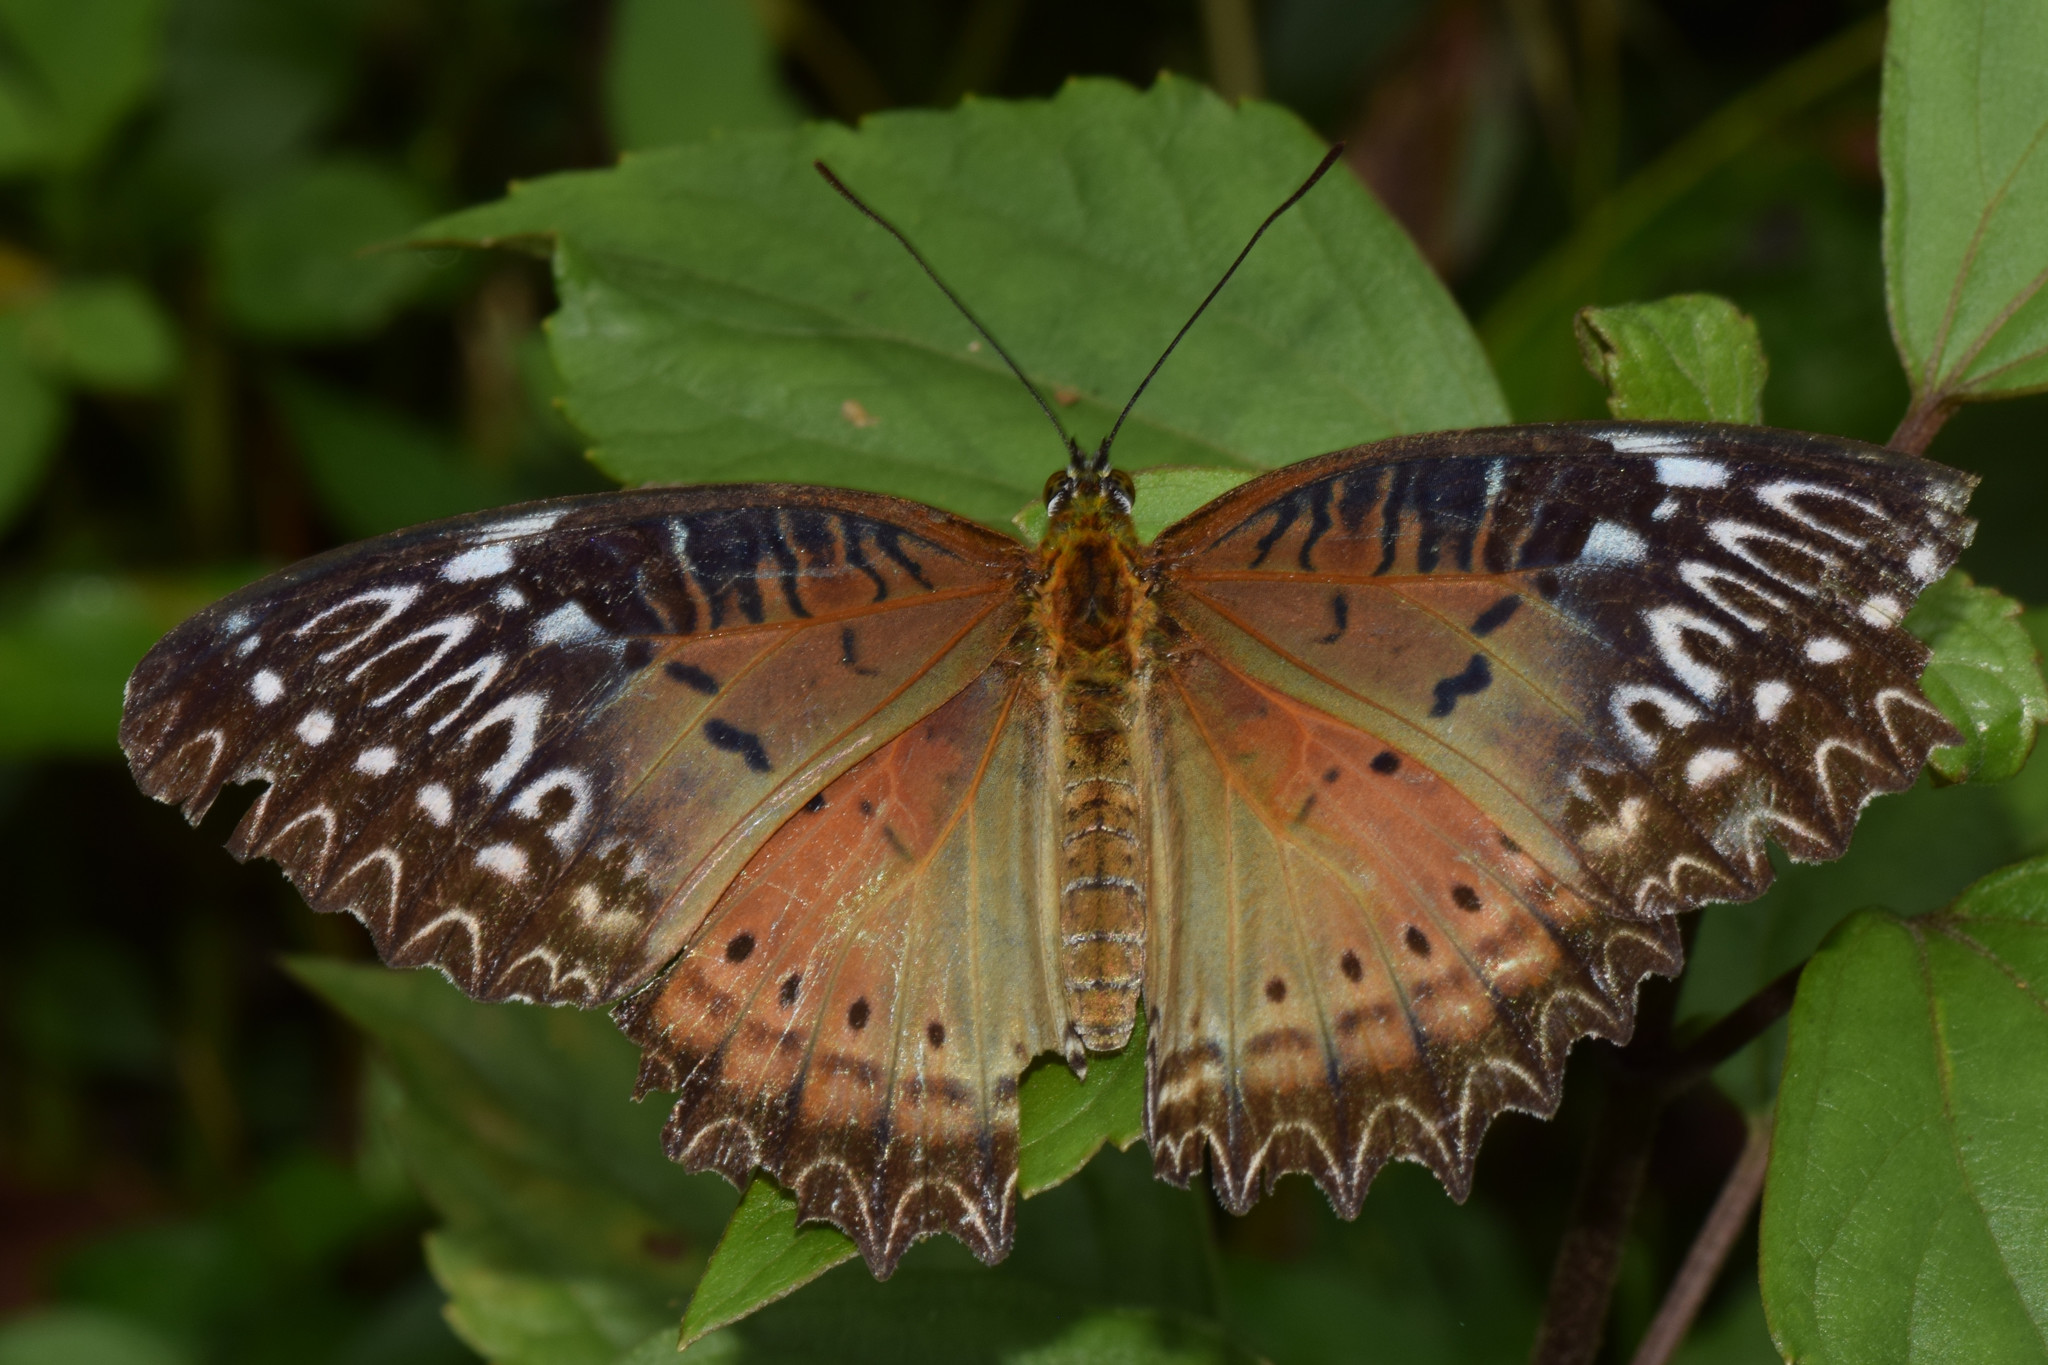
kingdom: Animalia
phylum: Arthropoda
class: Insecta
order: Lepidoptera
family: Nymphalidae
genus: Cethosia
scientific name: Cethosia biblis
